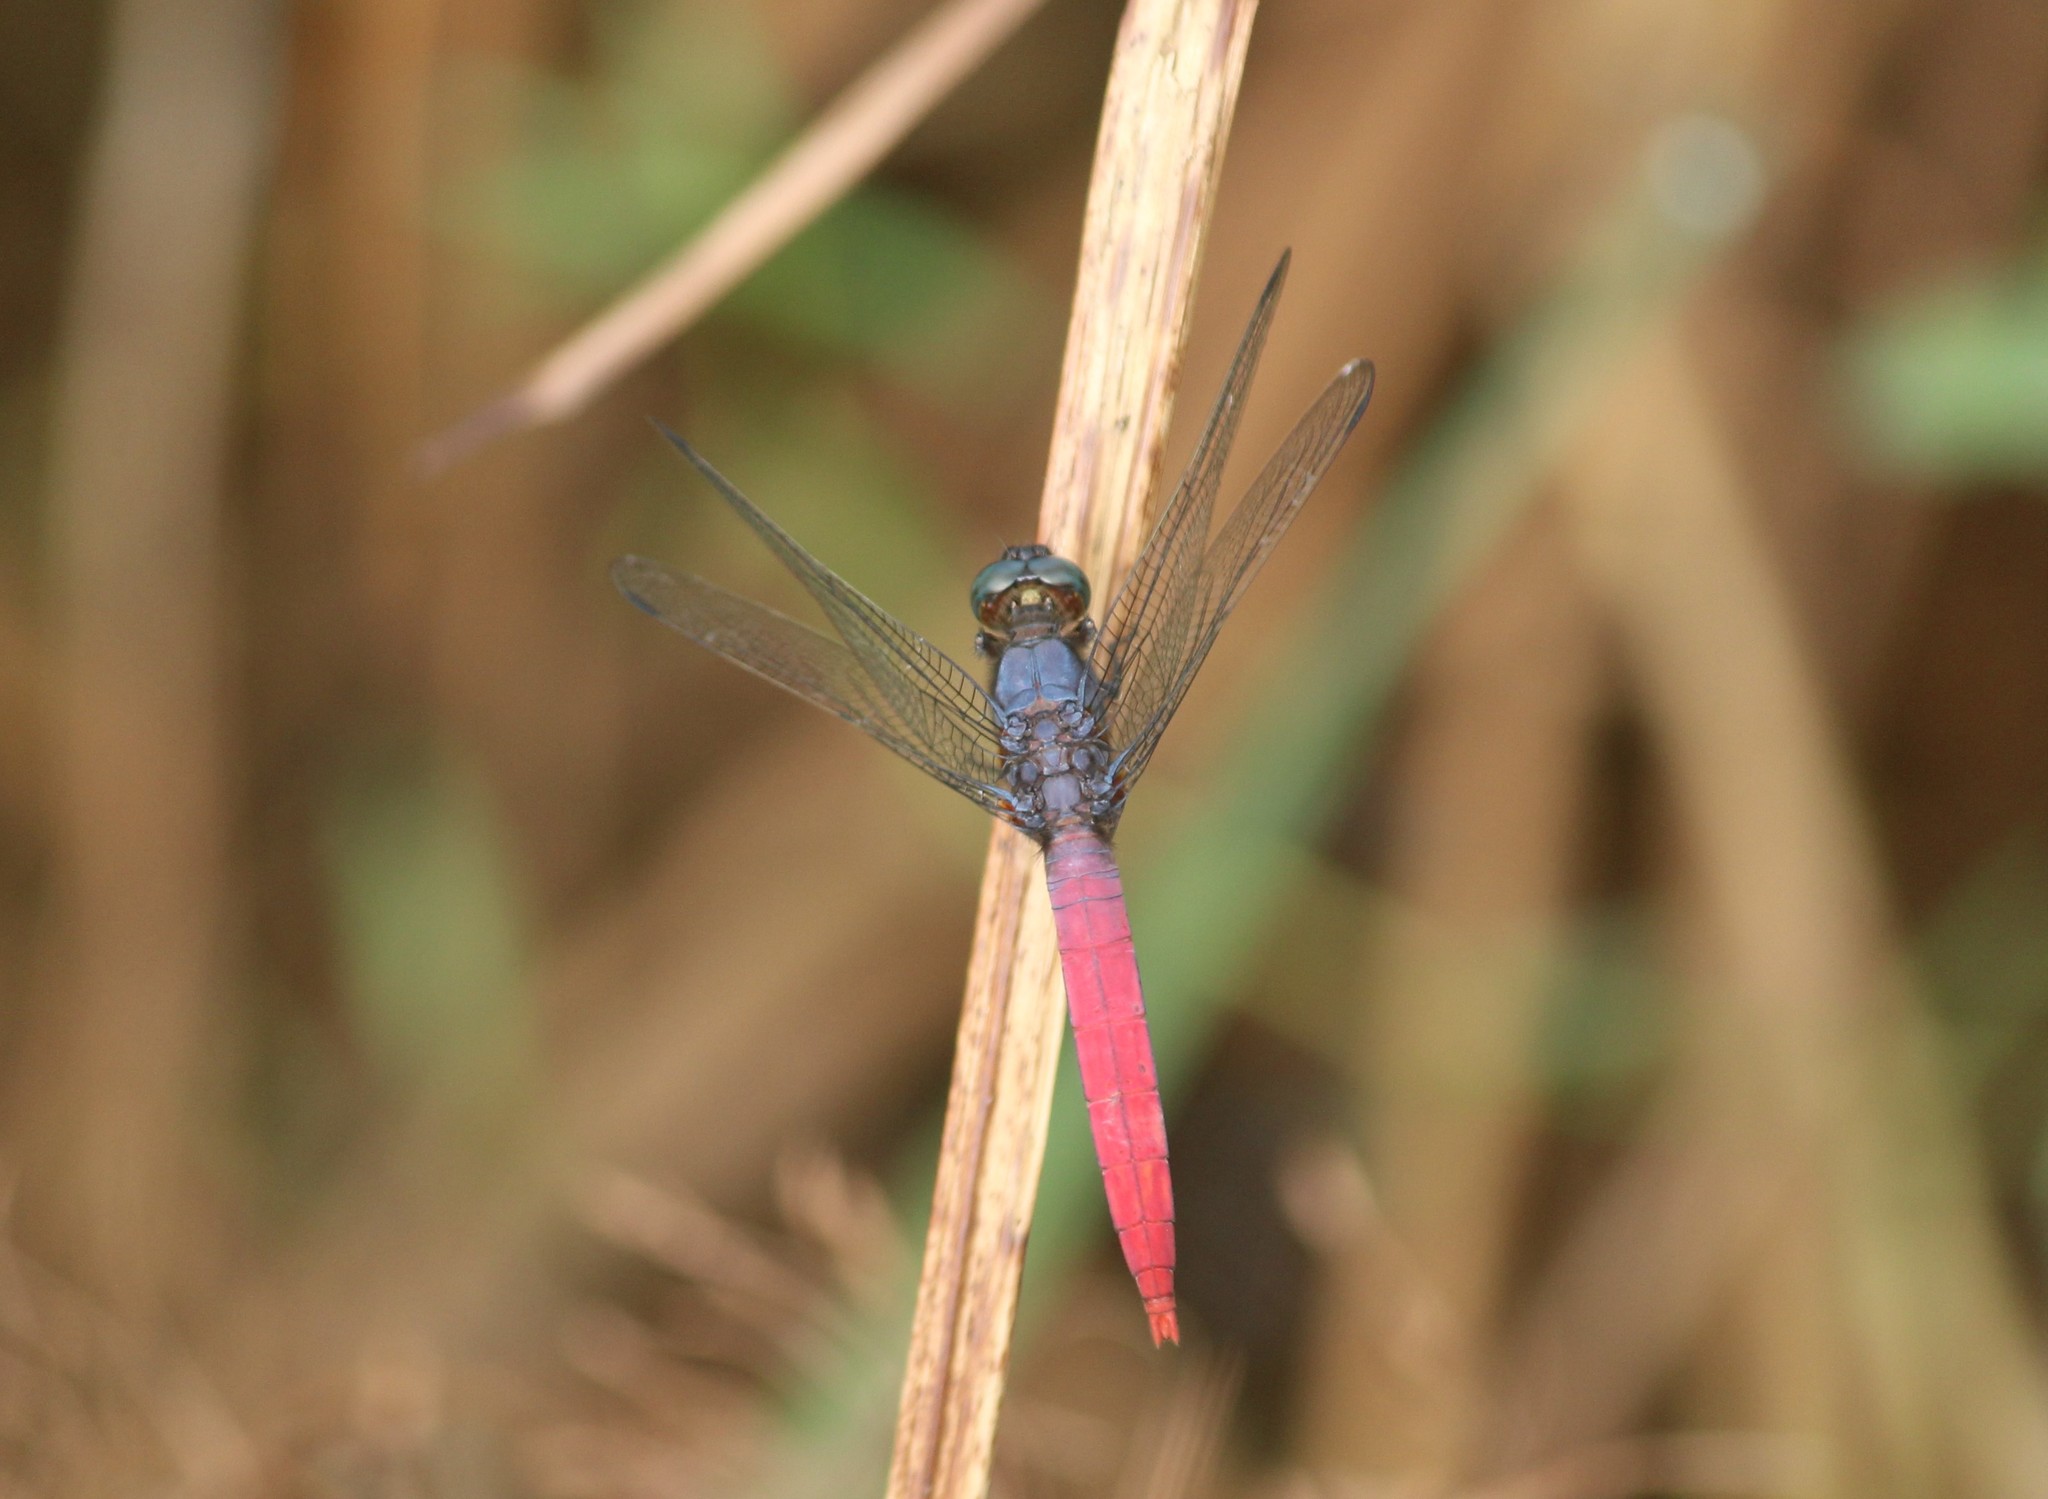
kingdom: Animalia
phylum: Arthropoda
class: Insecta
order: Odonata
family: Libellulidae
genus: Orthetrum
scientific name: Orthetrum pruinosum
